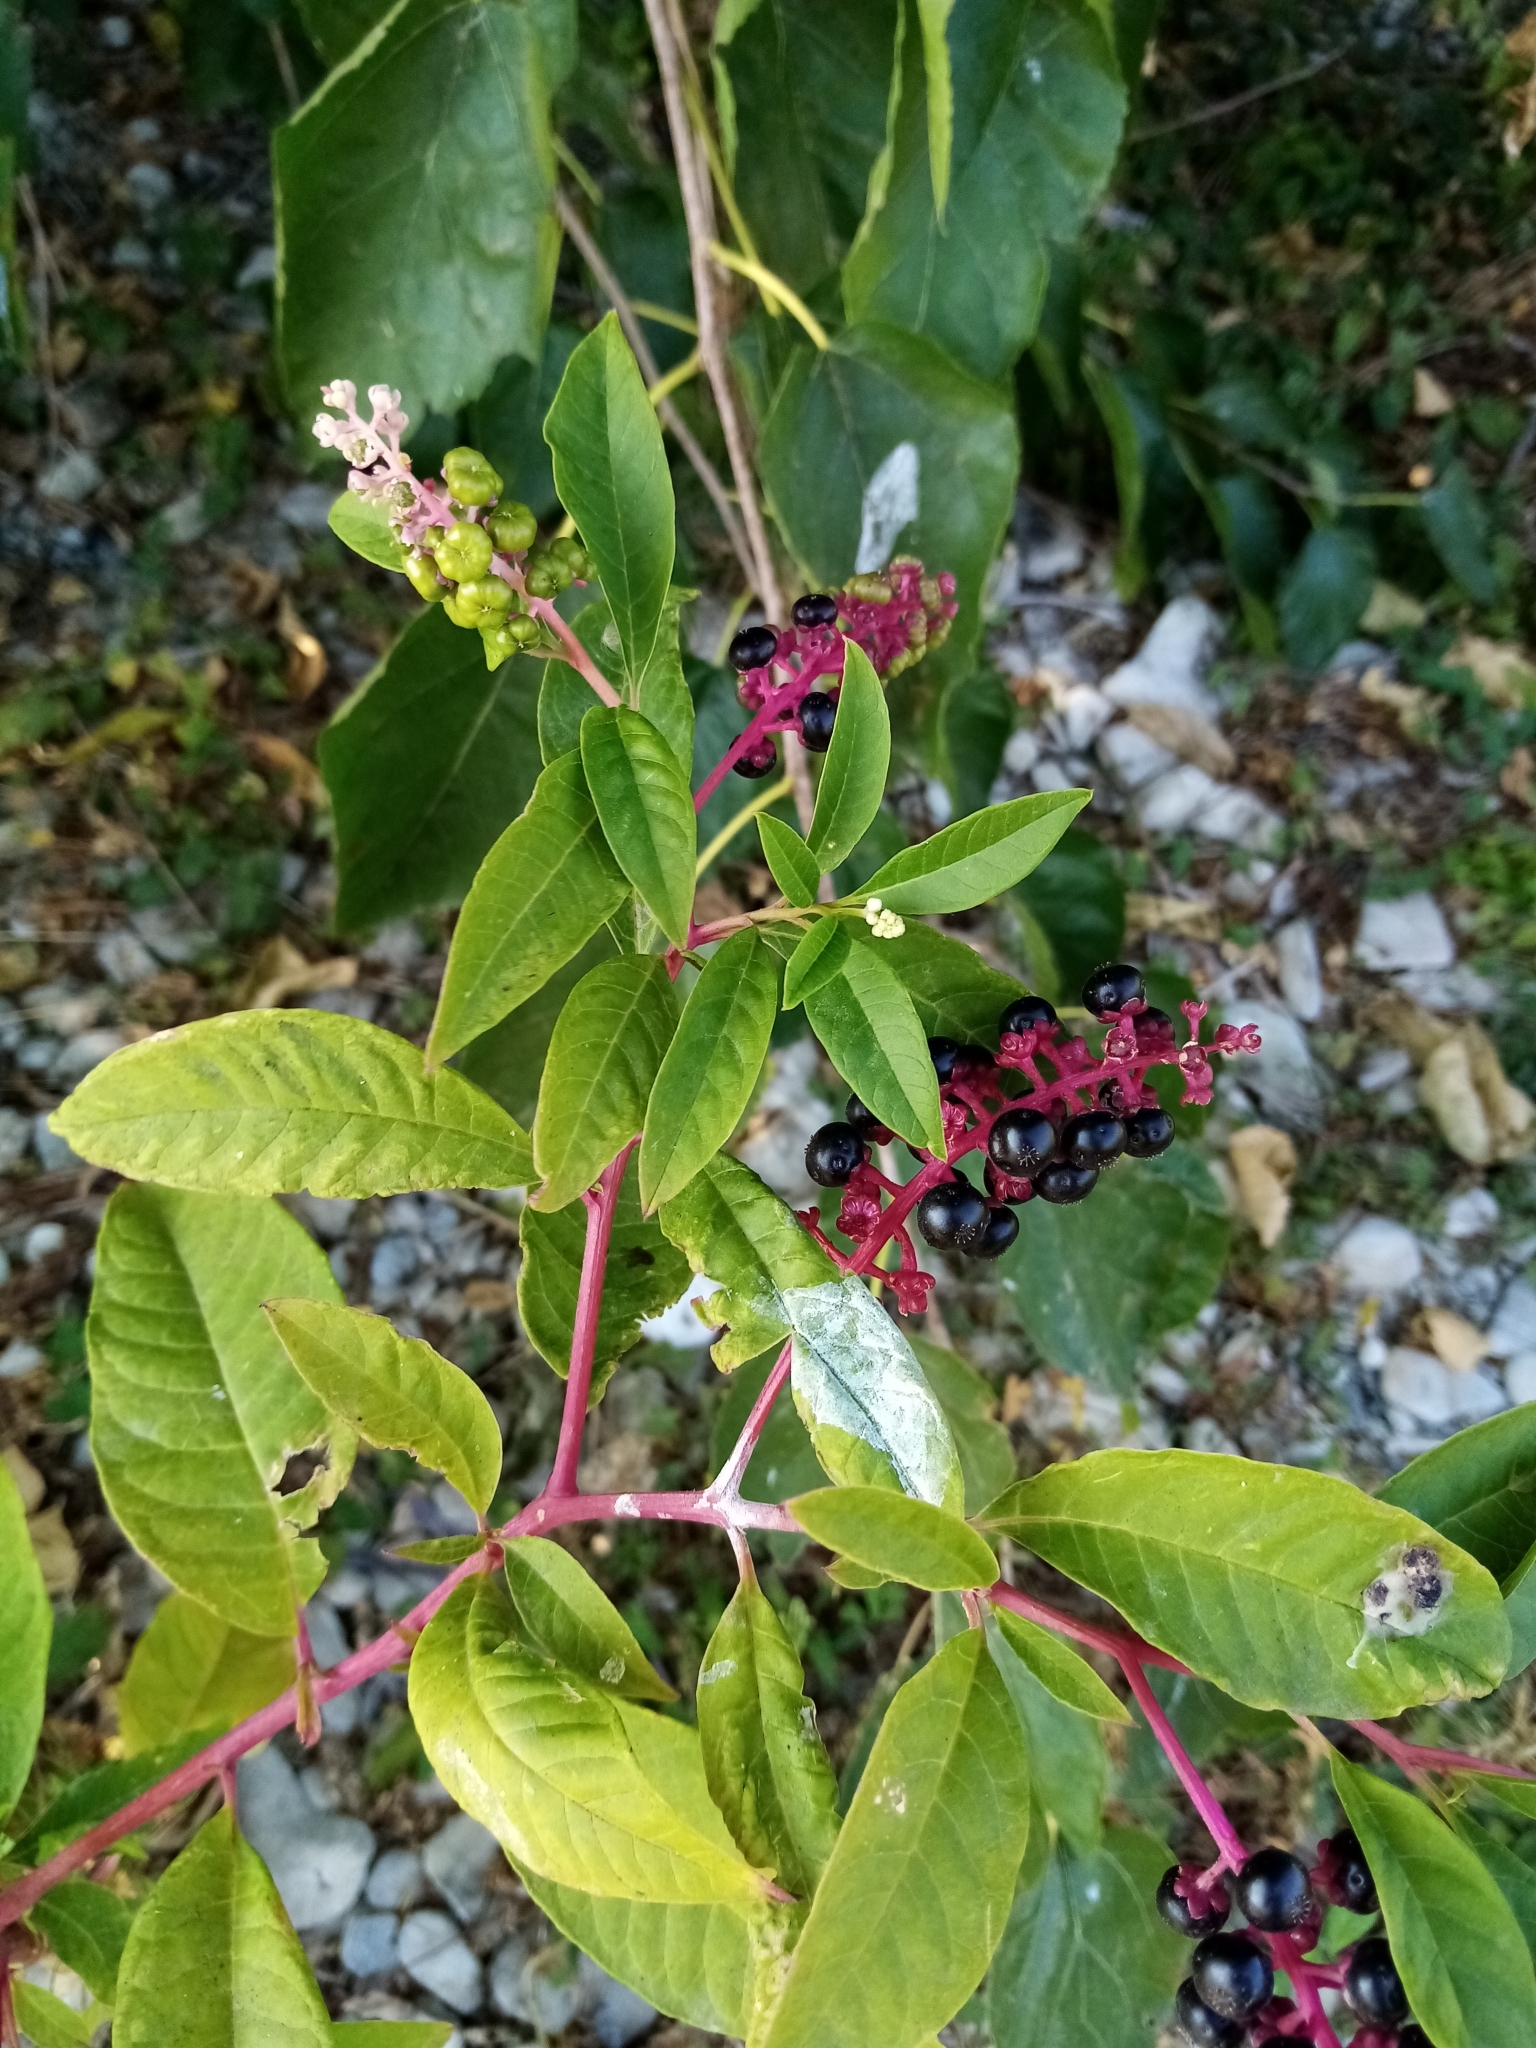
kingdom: Plantae
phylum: Tracheophyta
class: Magnoliopsida
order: Caryophyllales
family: Phytolaccaceae
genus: Phytolacca
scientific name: Phytolacca americana
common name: American pokeweed
